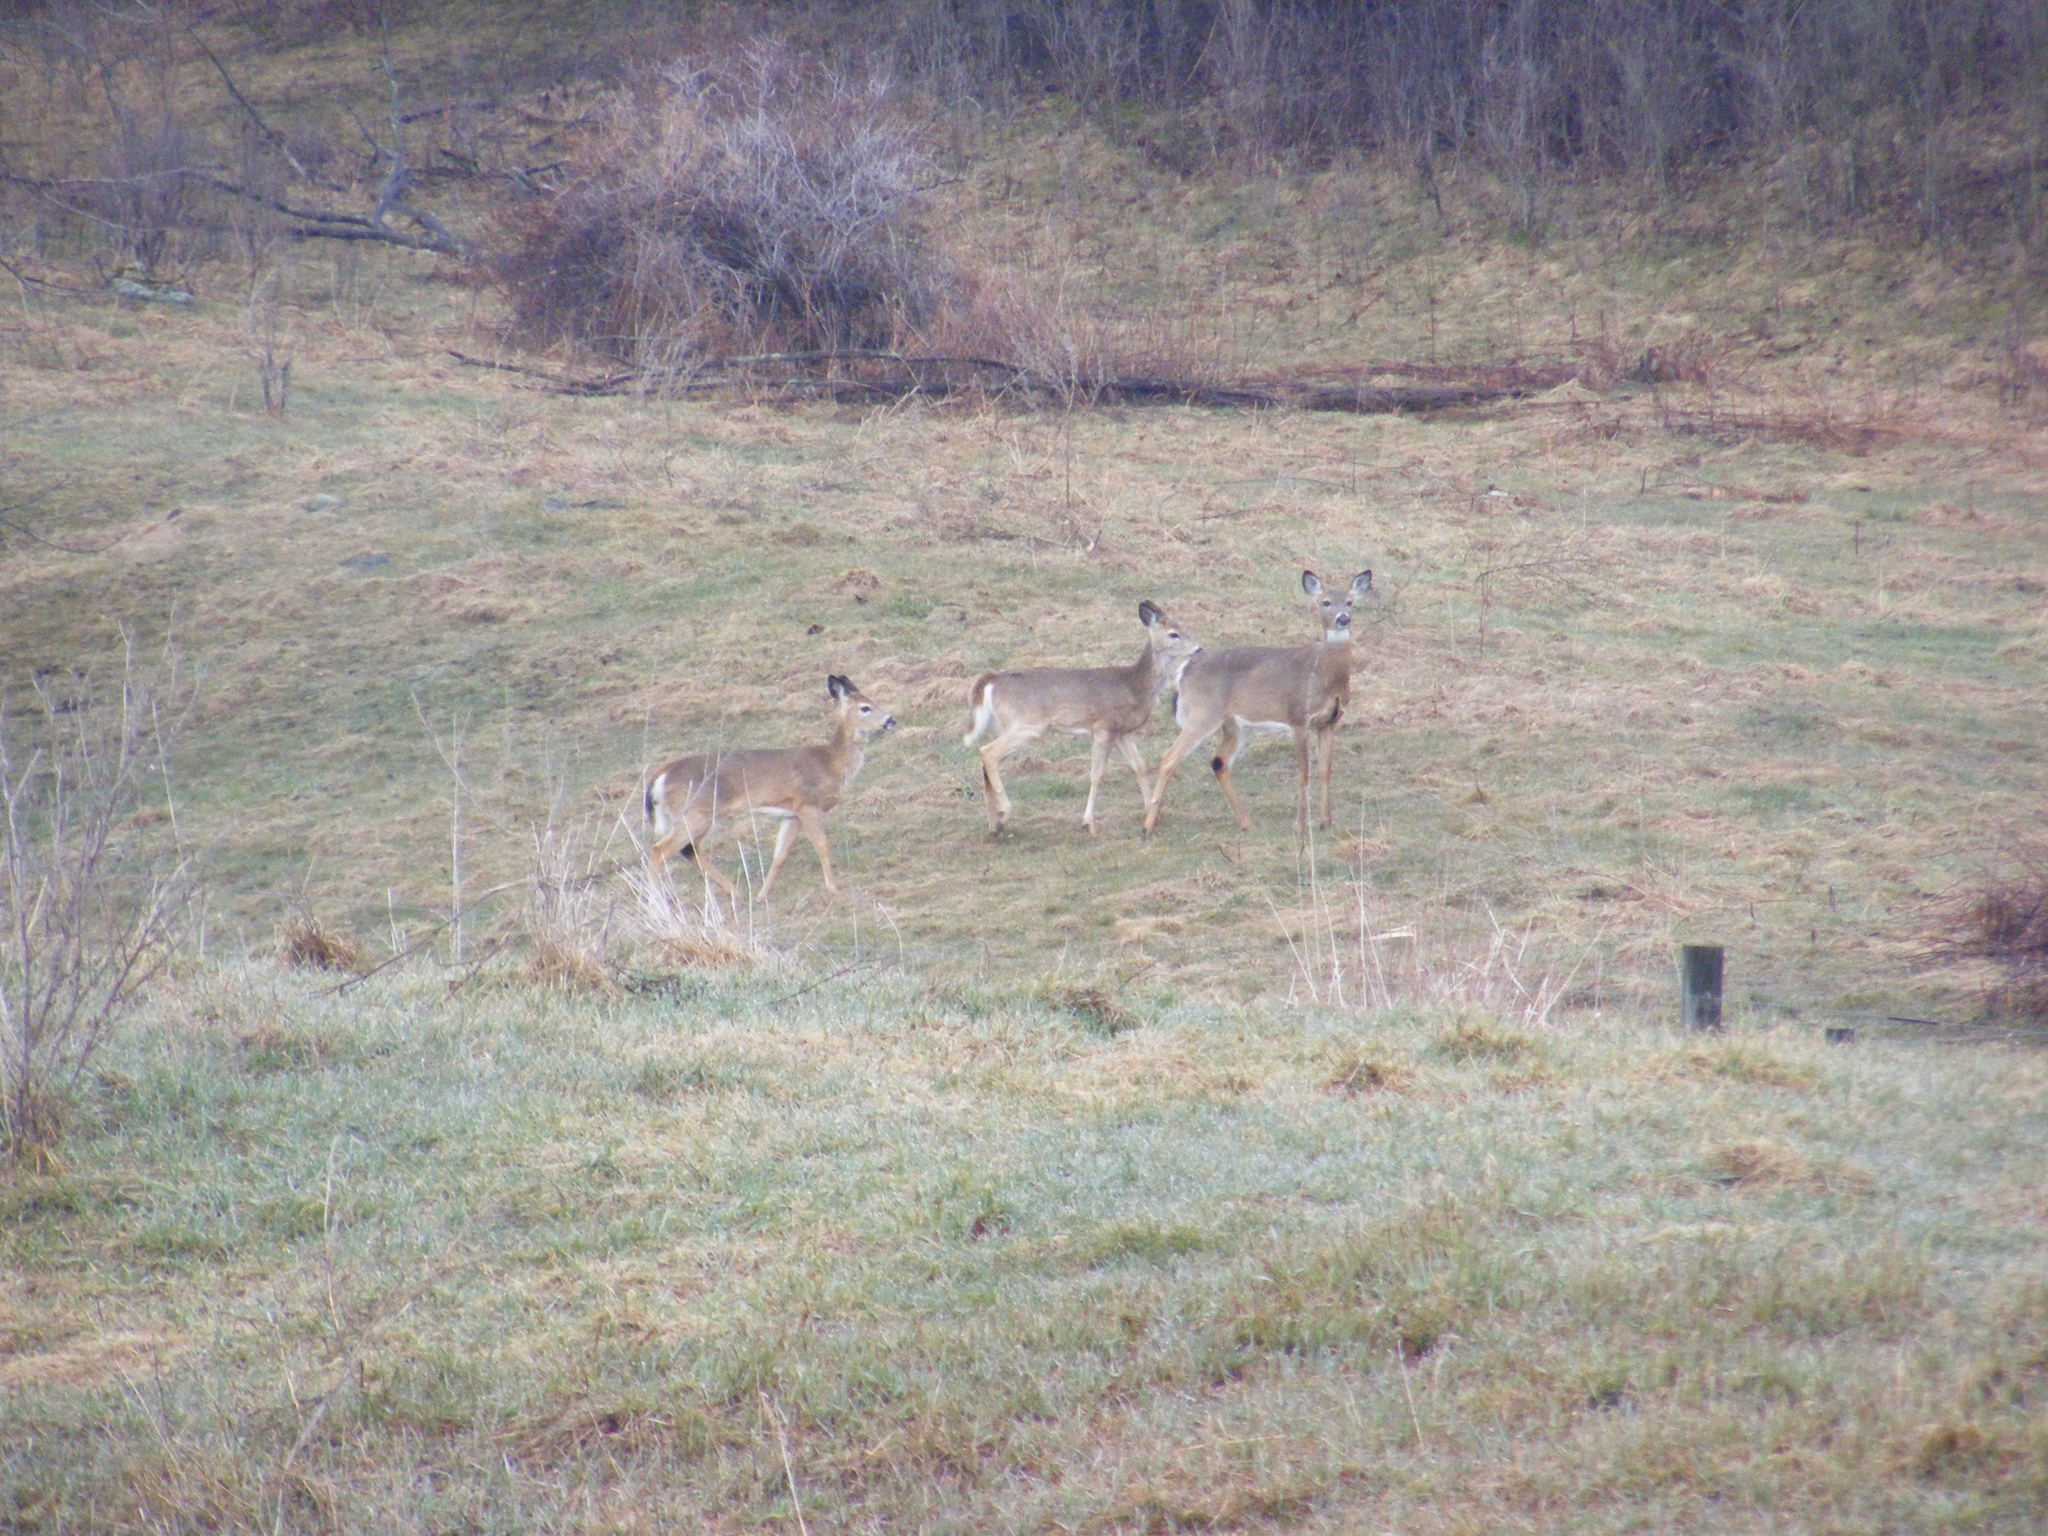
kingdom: Animalia
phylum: Chordata
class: Mammalia
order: Artiodactyla
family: Cervidae
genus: Odocoileus
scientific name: Odocoileus virginianus
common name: White-tailed deer
